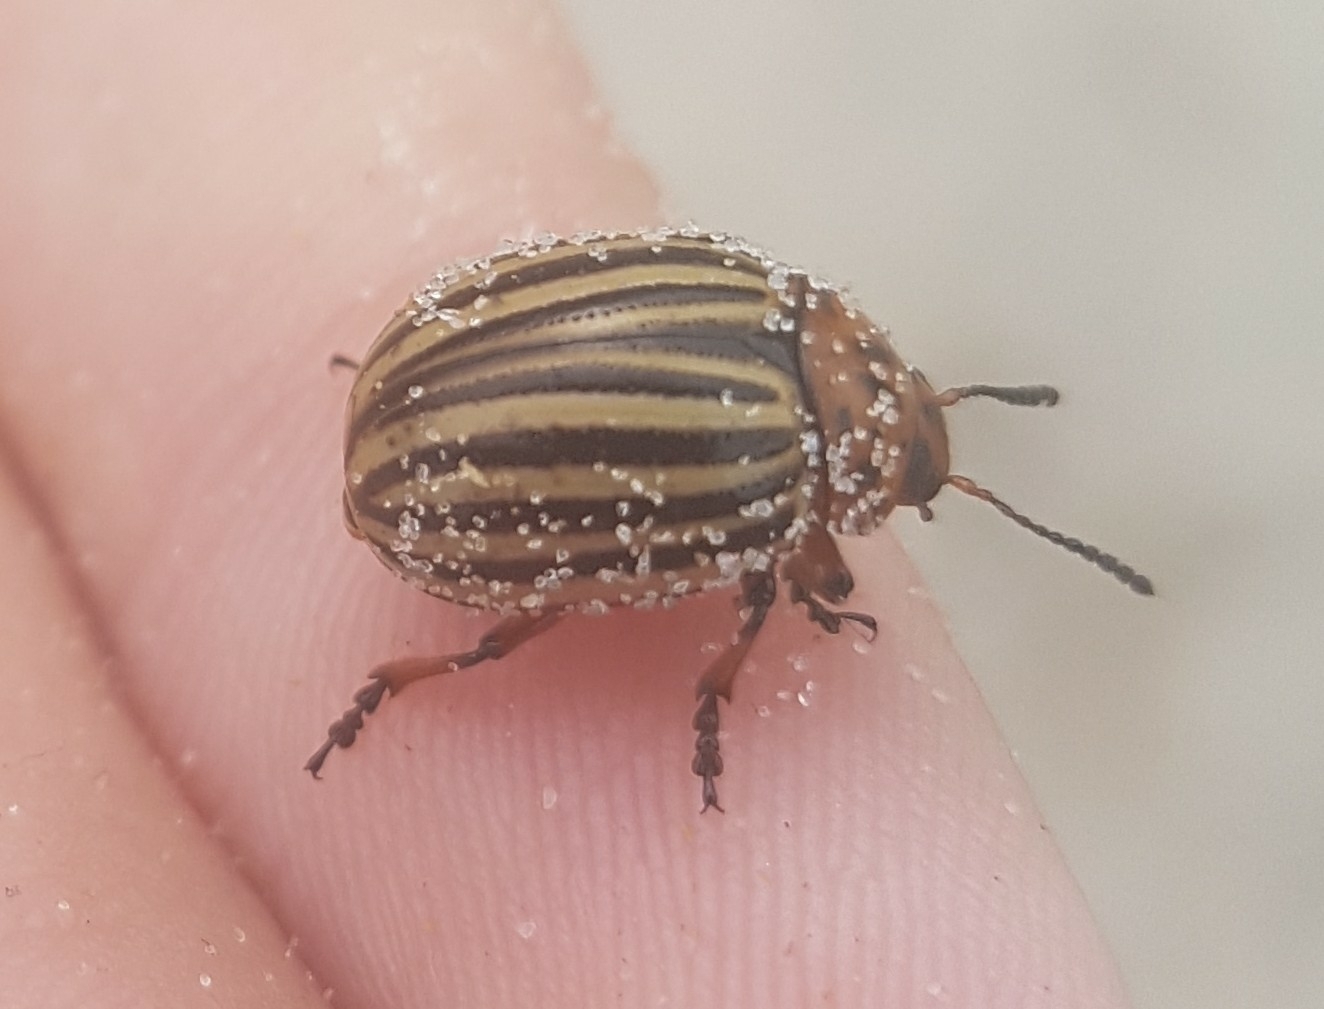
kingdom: Animalia
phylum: Arthropoda
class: Insecta
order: Coleoptera
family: Chrysomelidae
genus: Leptinotarsa
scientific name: Leptinotarsa decemlineata
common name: Colorado potato beetle
